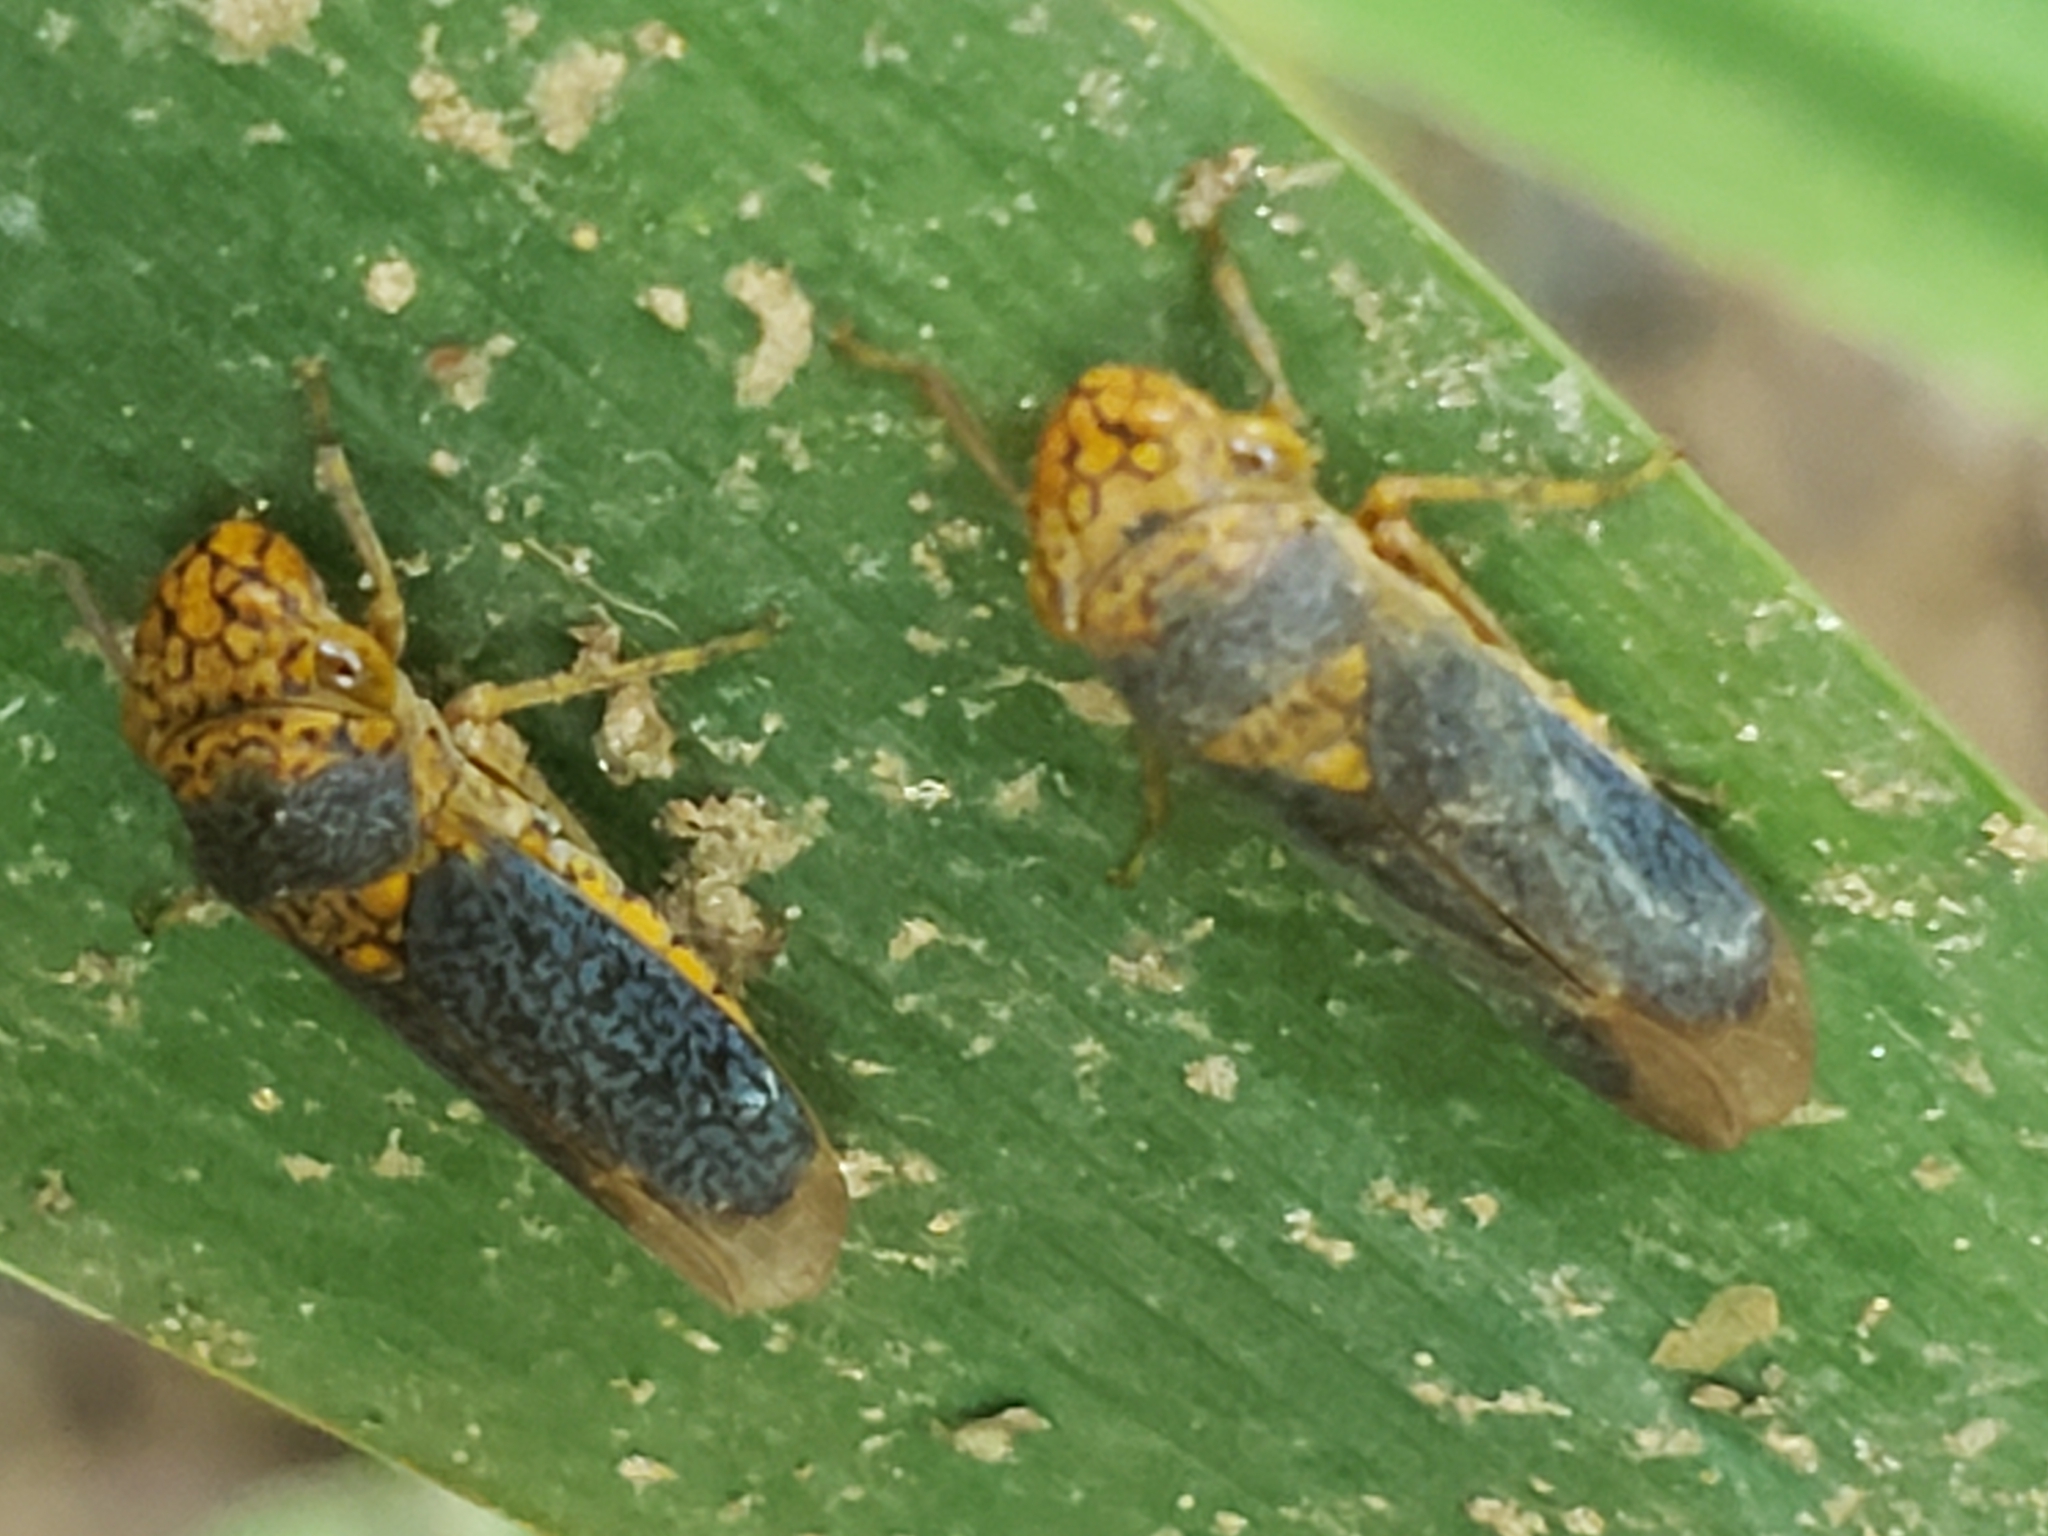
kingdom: Animalia
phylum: Arthropoda
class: Insecta
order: Hemiptera
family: Cicadellidae
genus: Oncometopia
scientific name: Oncometopia orbona
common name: Broad-headed sharpshooter
